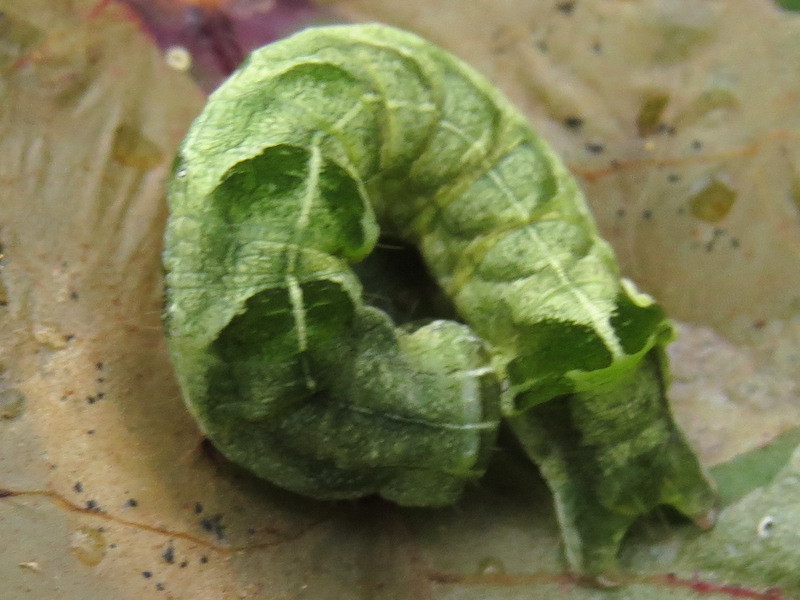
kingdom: Animalia
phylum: Arthropoda
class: Insecta
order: Lepidoptera
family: Noctuidae
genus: Melanchra
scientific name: Melanchra adjuncta
